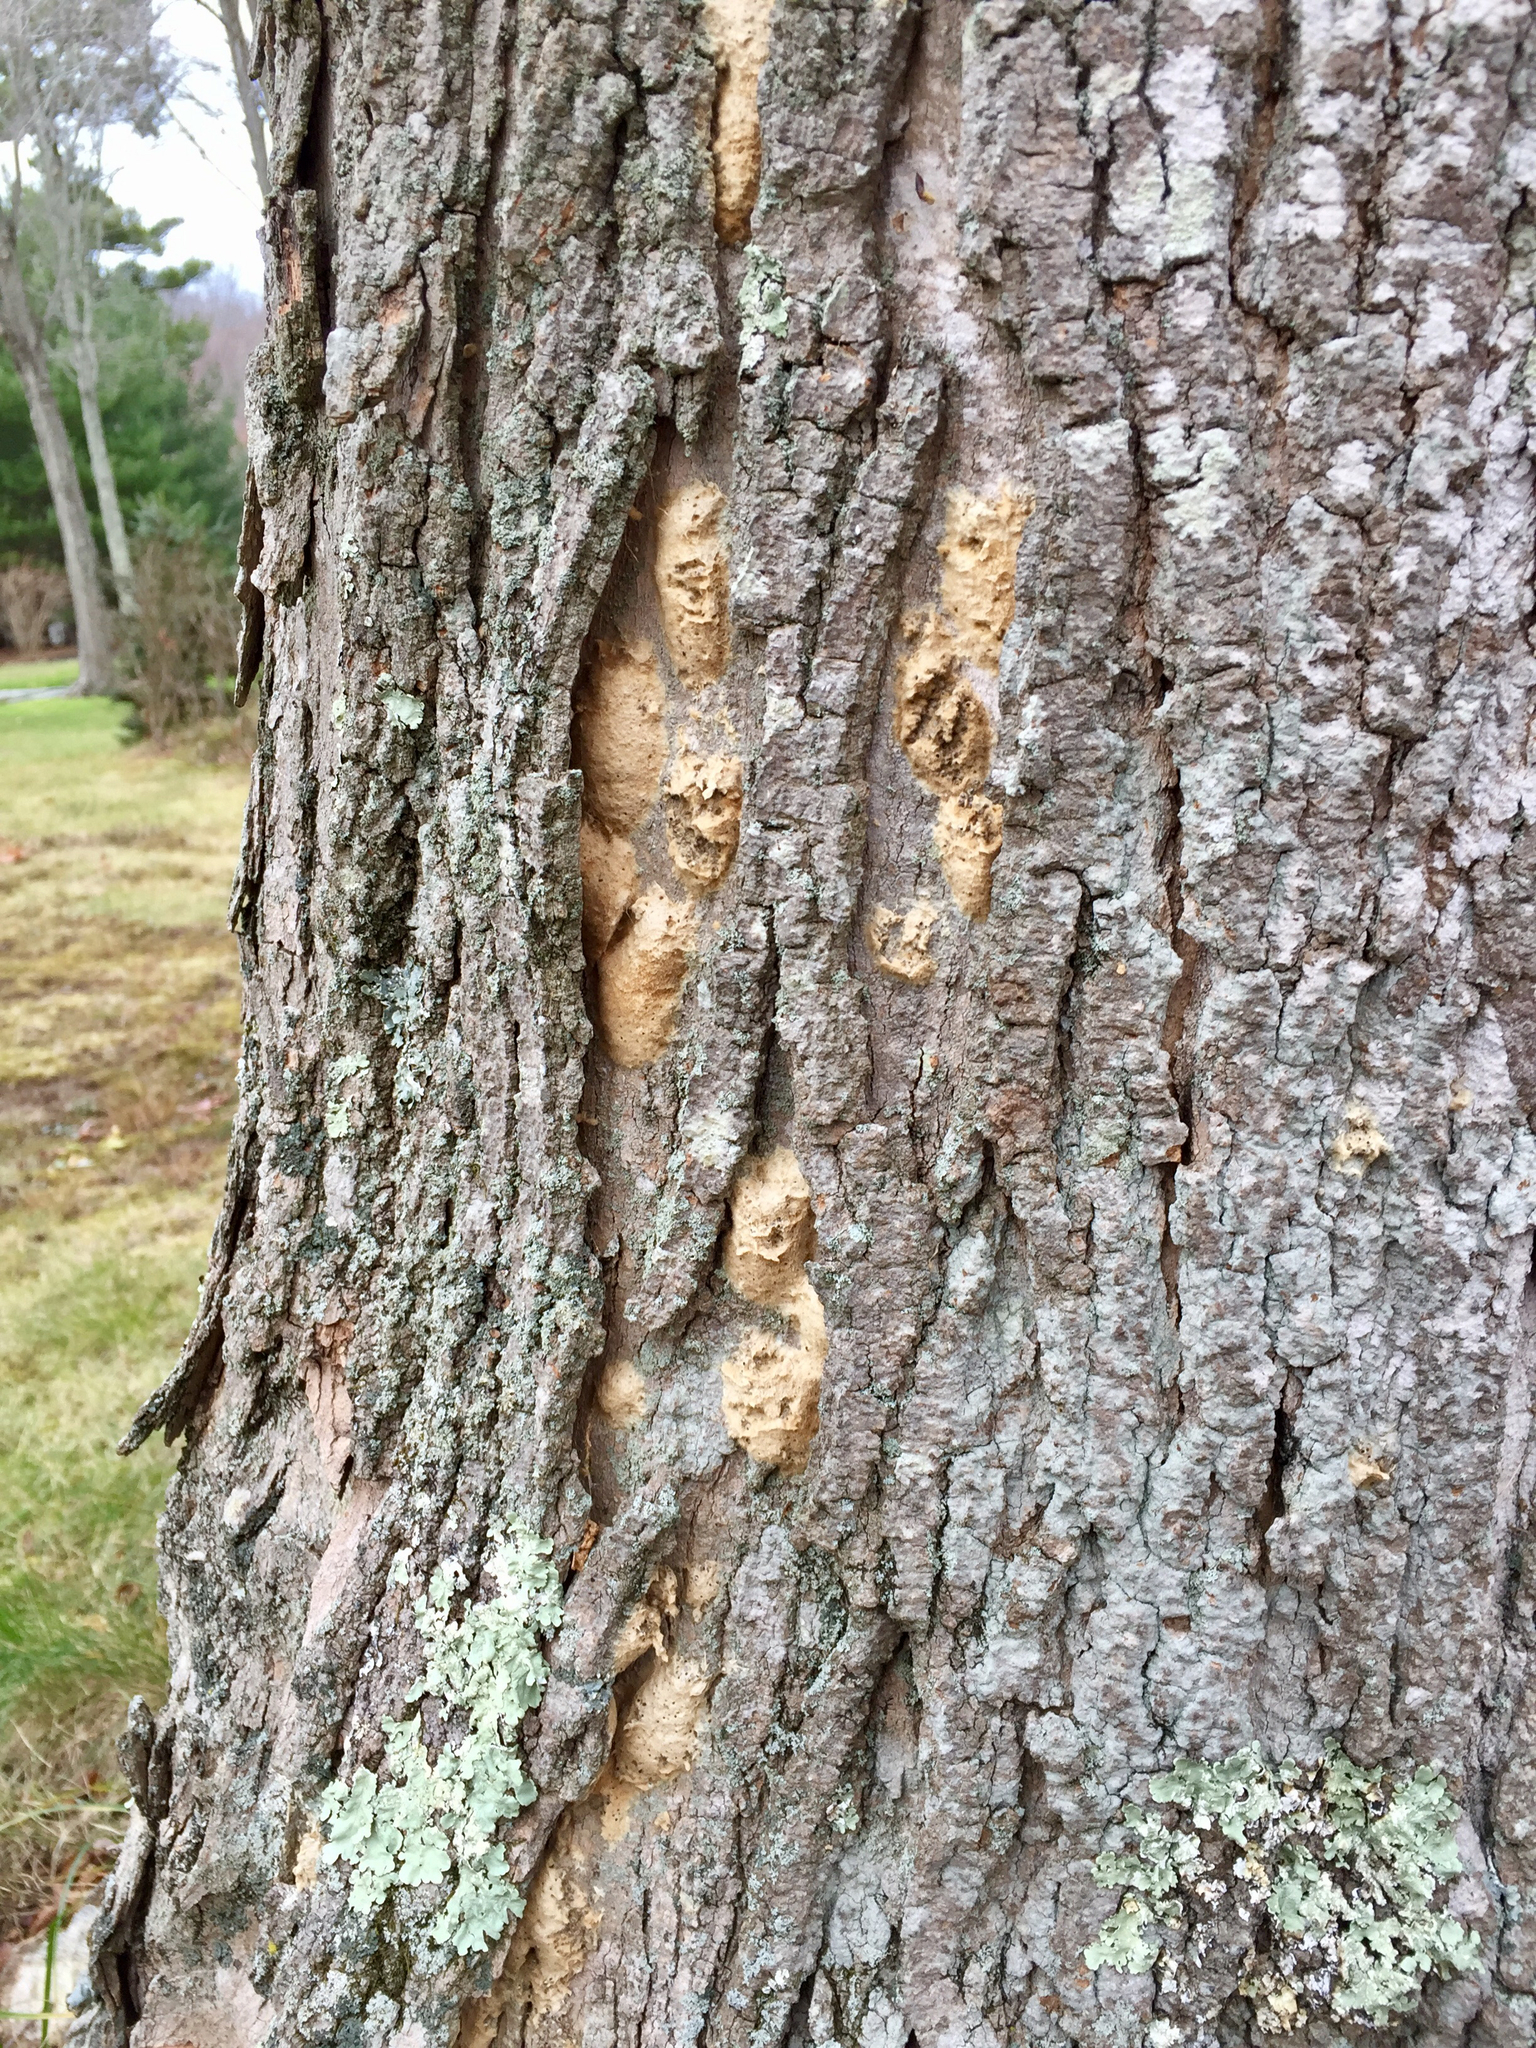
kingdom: Animalia
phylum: Arthropoda
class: Insecta
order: Lepidoptera
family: Erebidae
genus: Lymantria
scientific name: Lymantria dispar
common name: Gypsy moth
